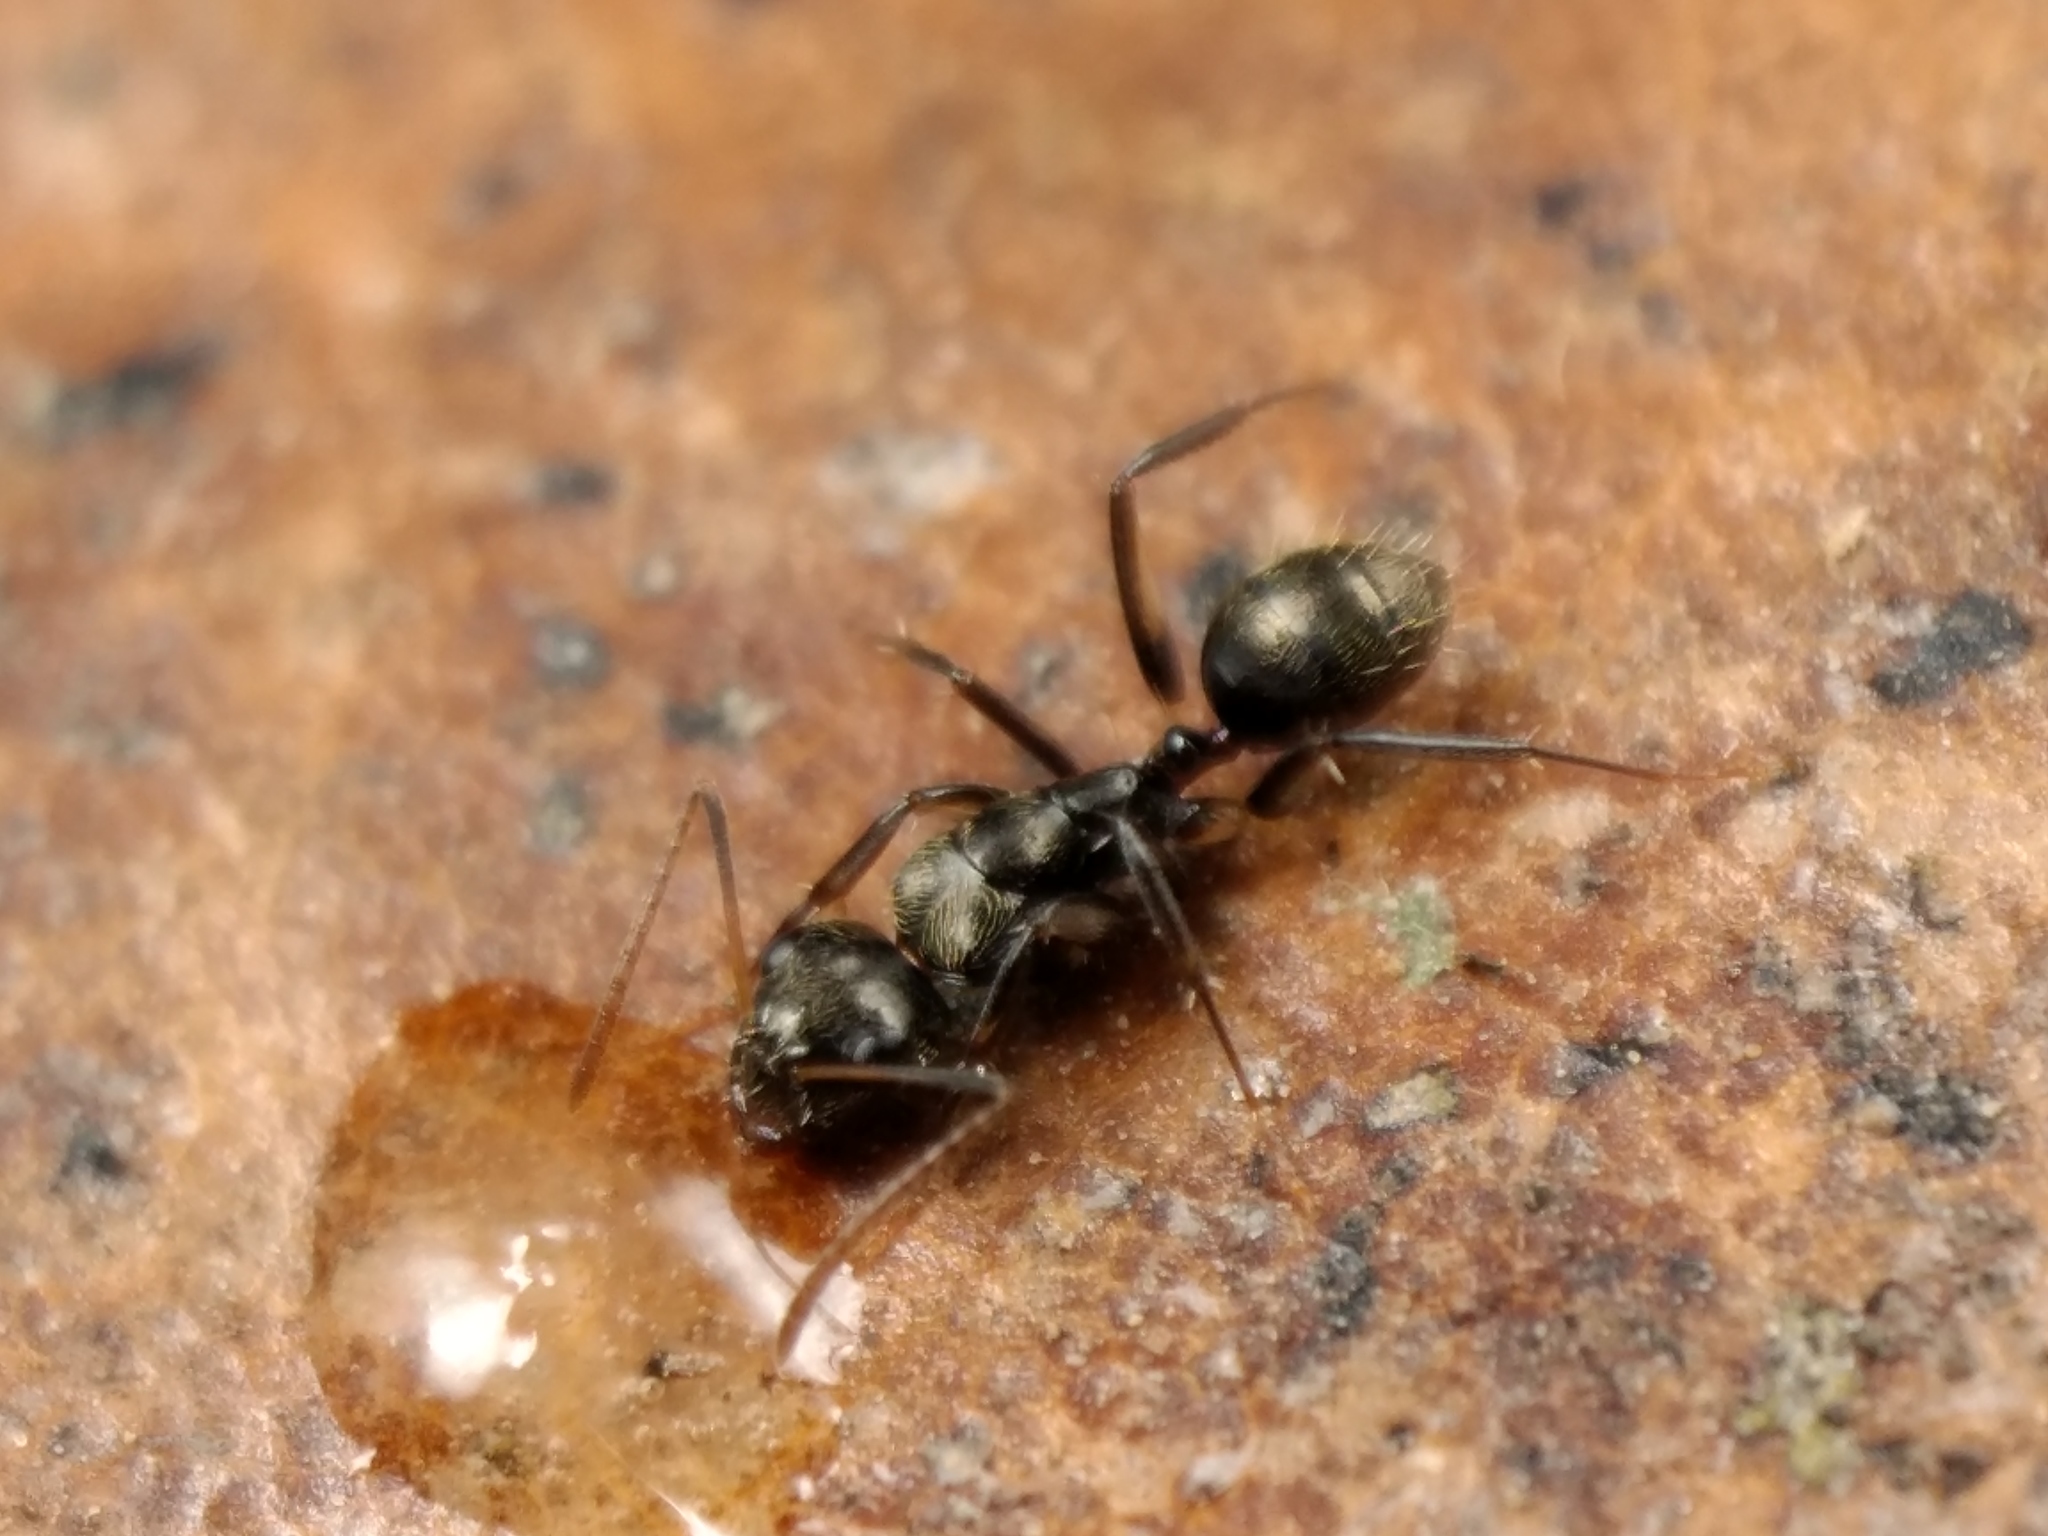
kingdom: Animalia
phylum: Arthropoda
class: Insecta
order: Hymenoptera
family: Formicidae
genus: Camponotus
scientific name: Camponotus froggatti
